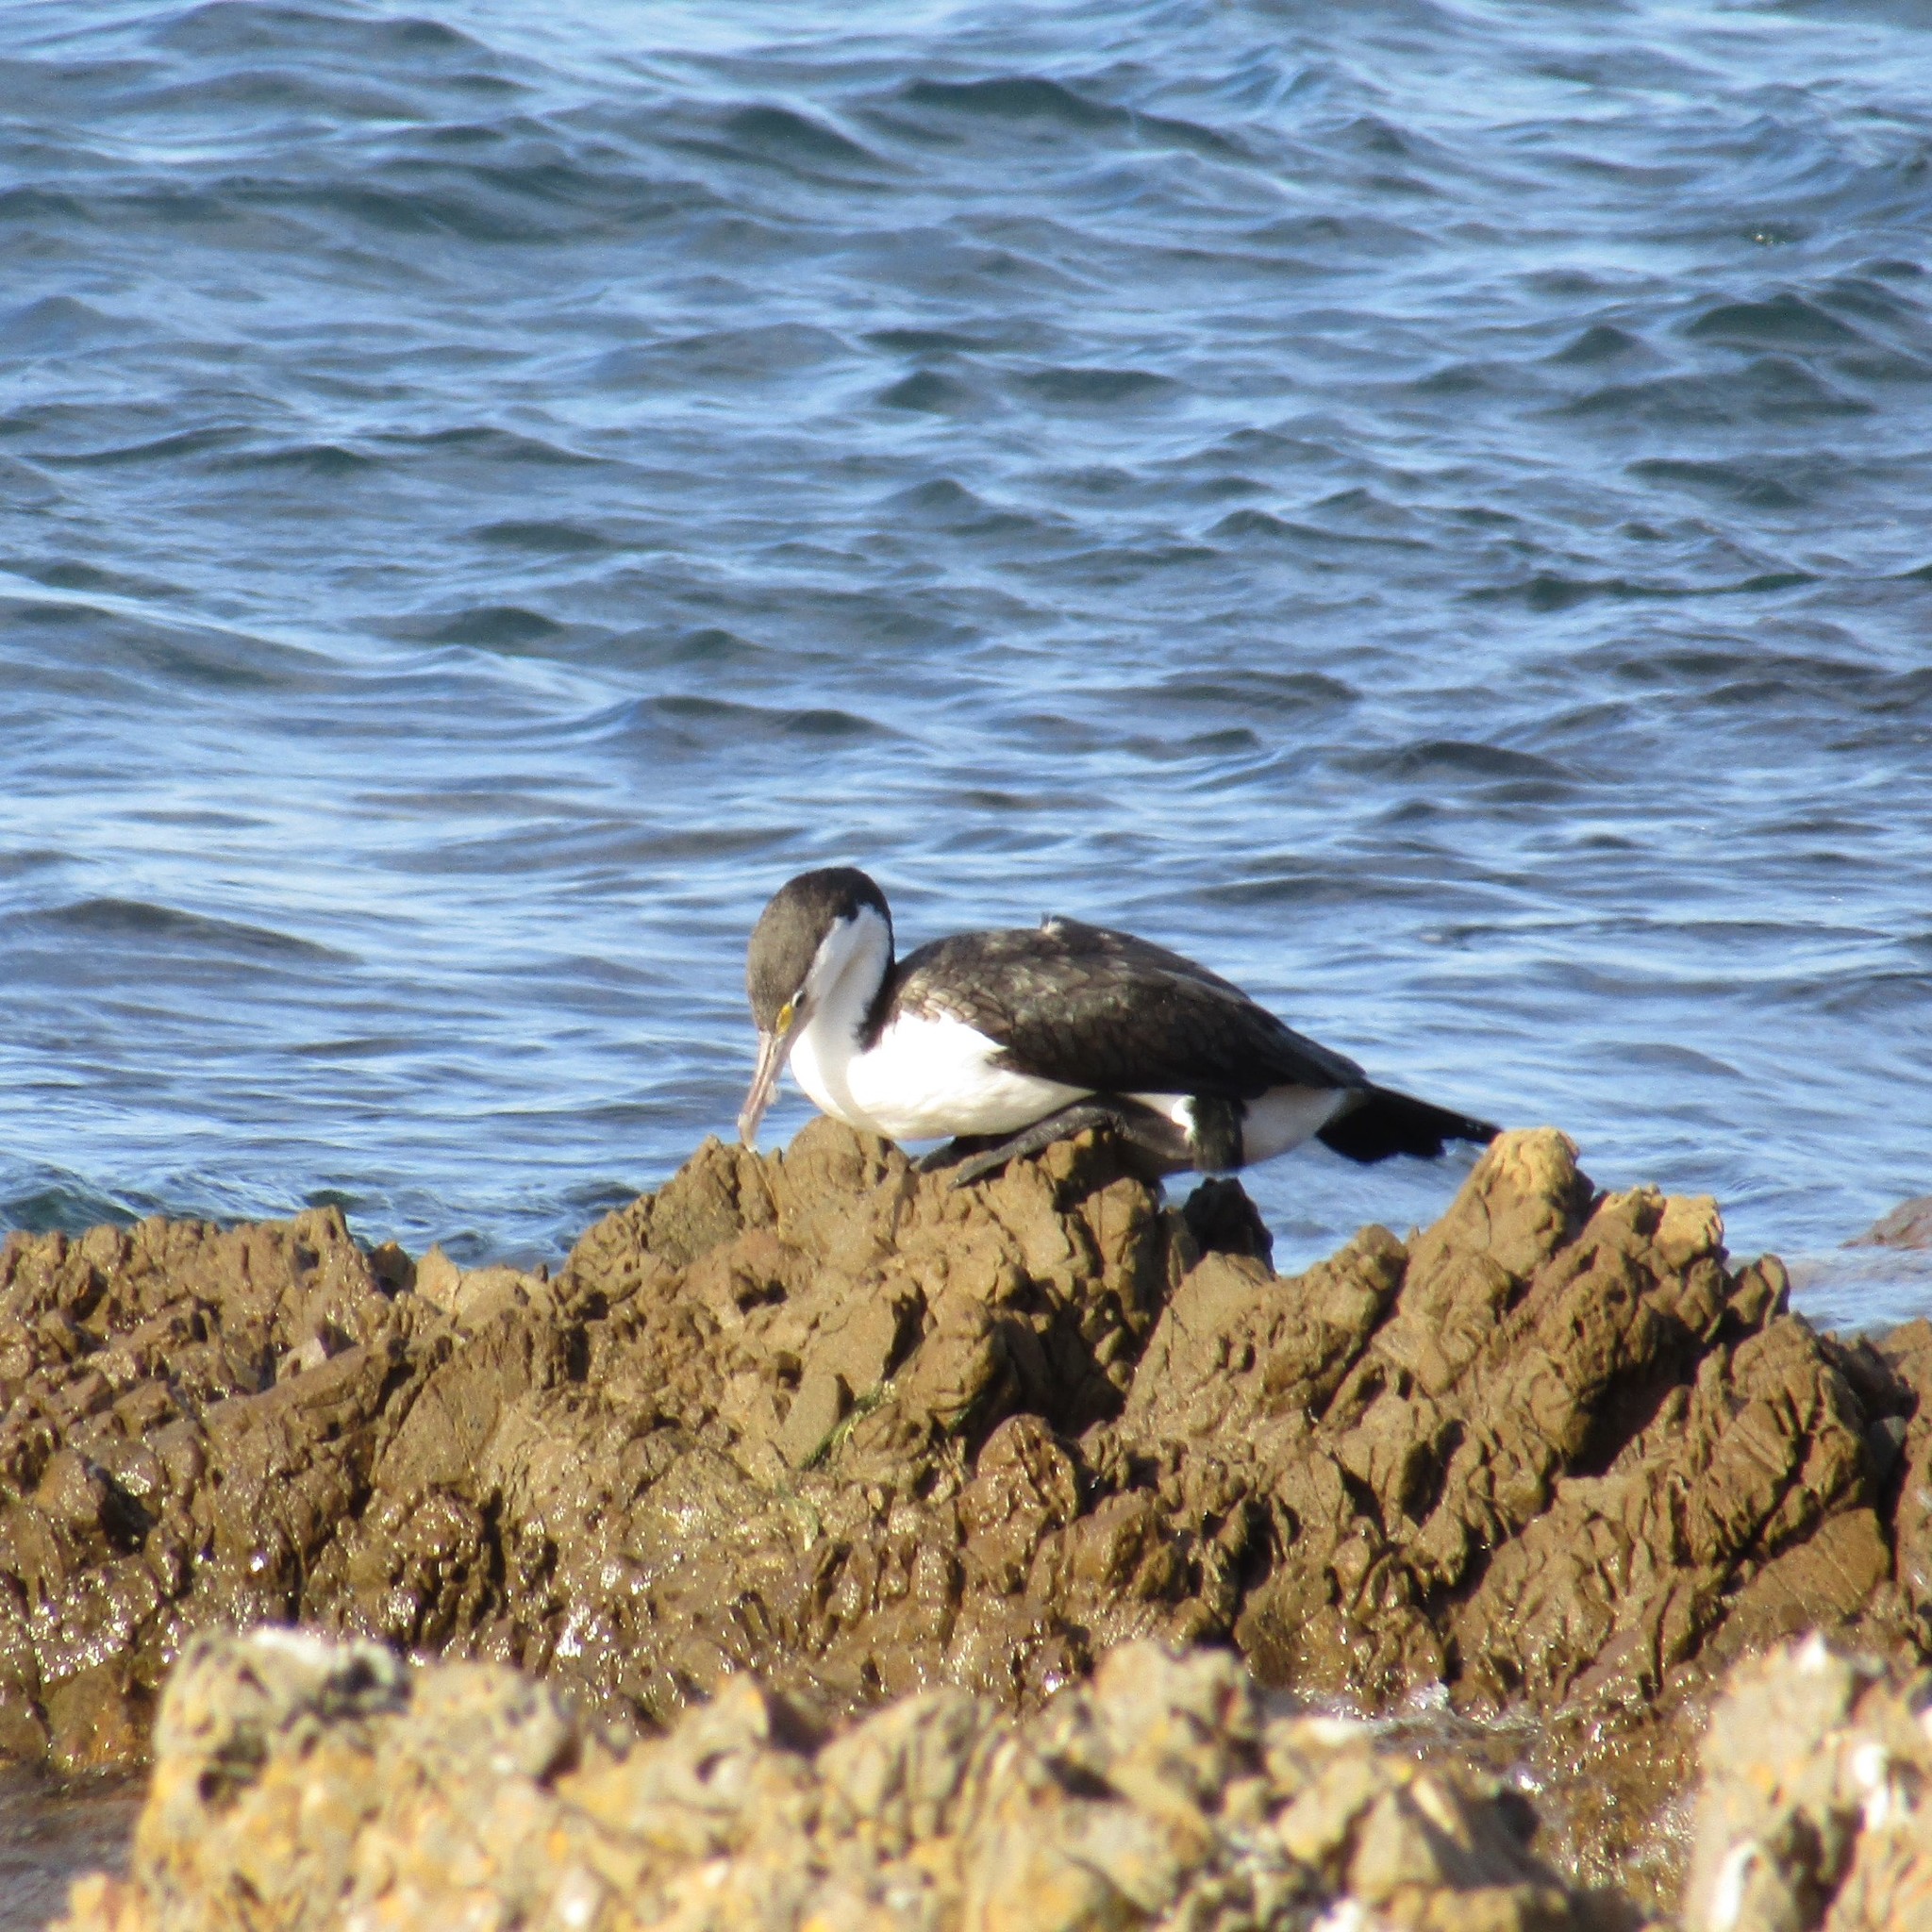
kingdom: Animalia
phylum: Chordata
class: Aves
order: Suliformes
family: Phalacrocoracidae
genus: Phalacrocorax
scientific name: Phalacrocorax varius
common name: Pied cormorant
